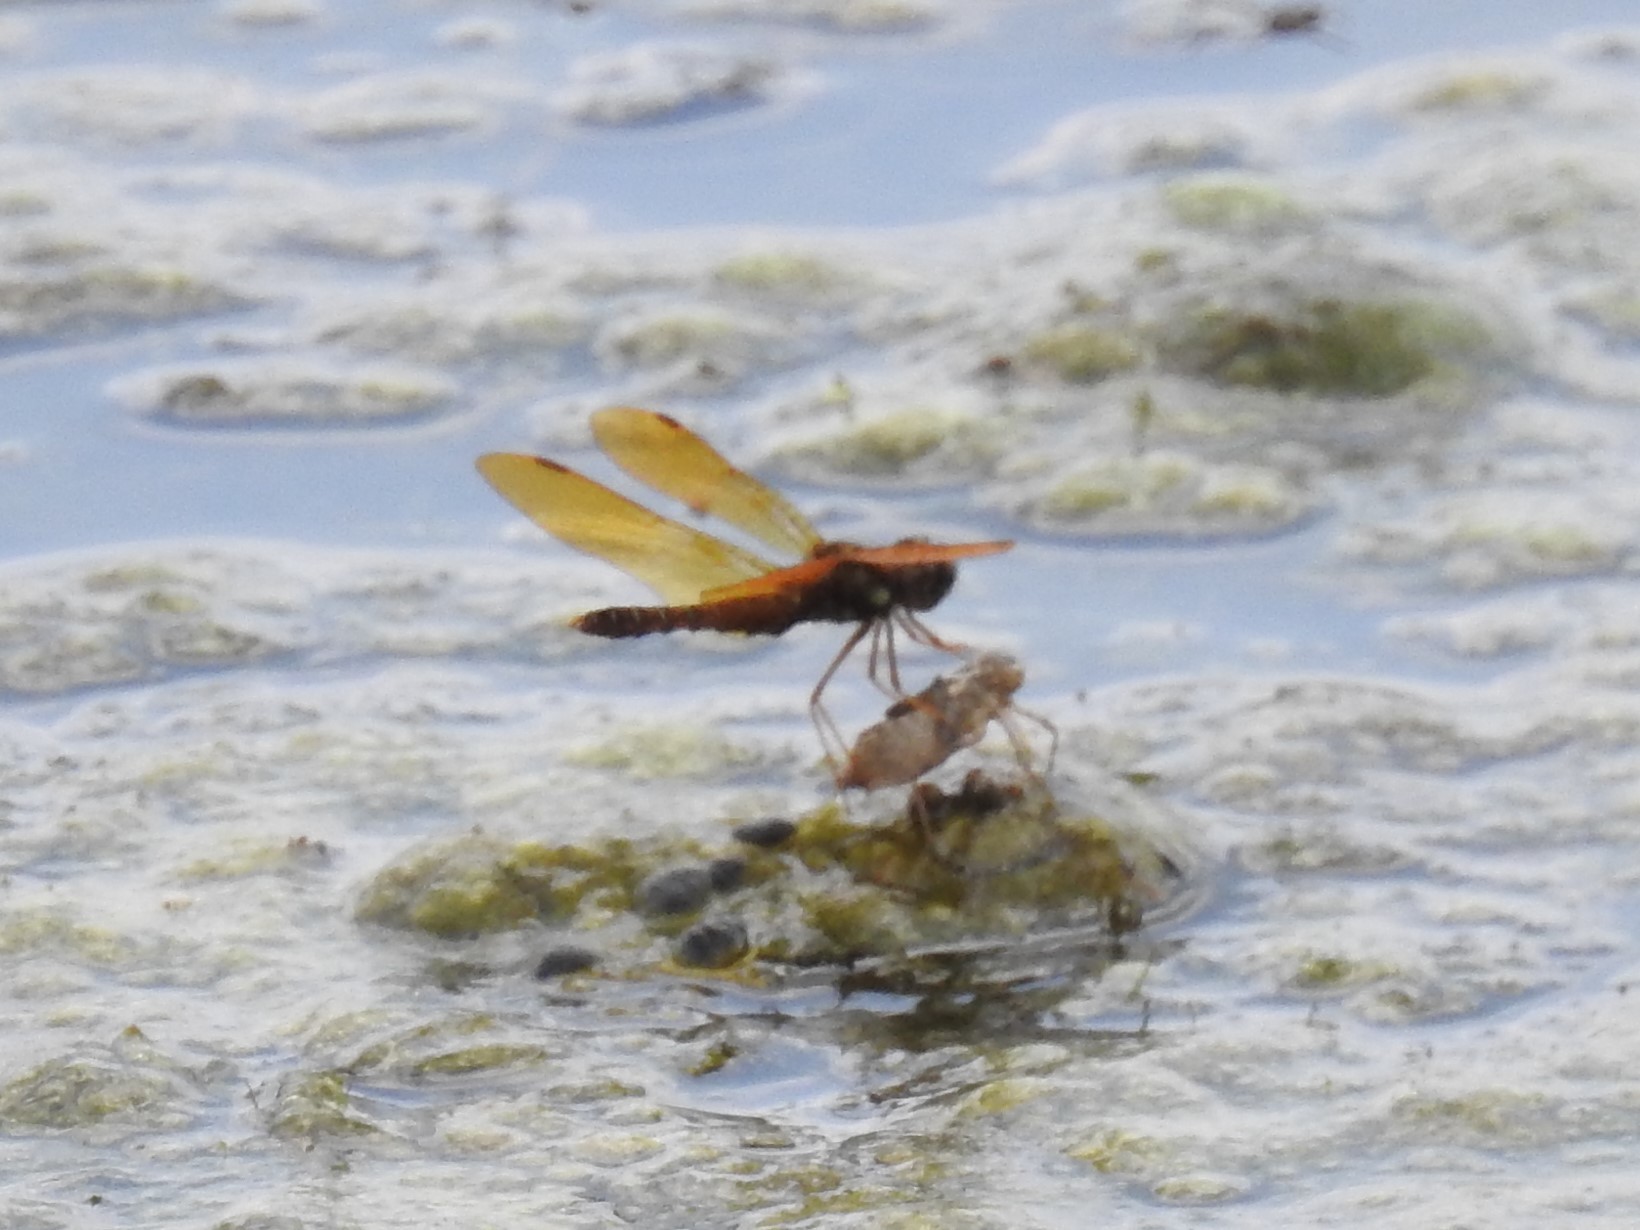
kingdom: Animalia
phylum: Arthropoda
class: Insecta
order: Odonata
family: Libellulidae
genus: Perithemis
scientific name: Perithemis tenera
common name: Eastern amberwing
